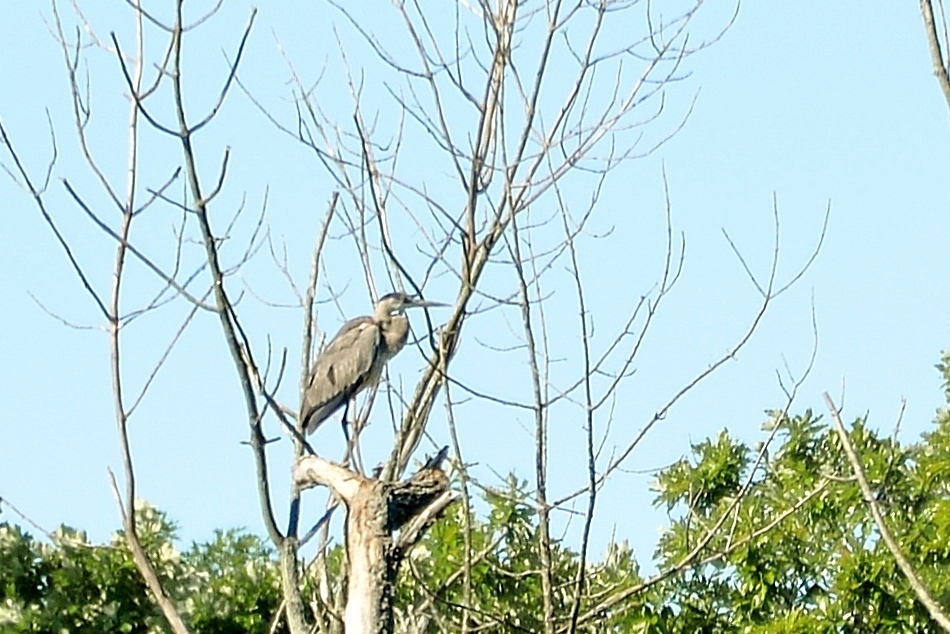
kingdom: Animalia
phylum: Chordata
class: Aves
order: Pelecaniformes
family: Ardeidae
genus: Ardea
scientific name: Ardea herodias
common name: Great blue heron
